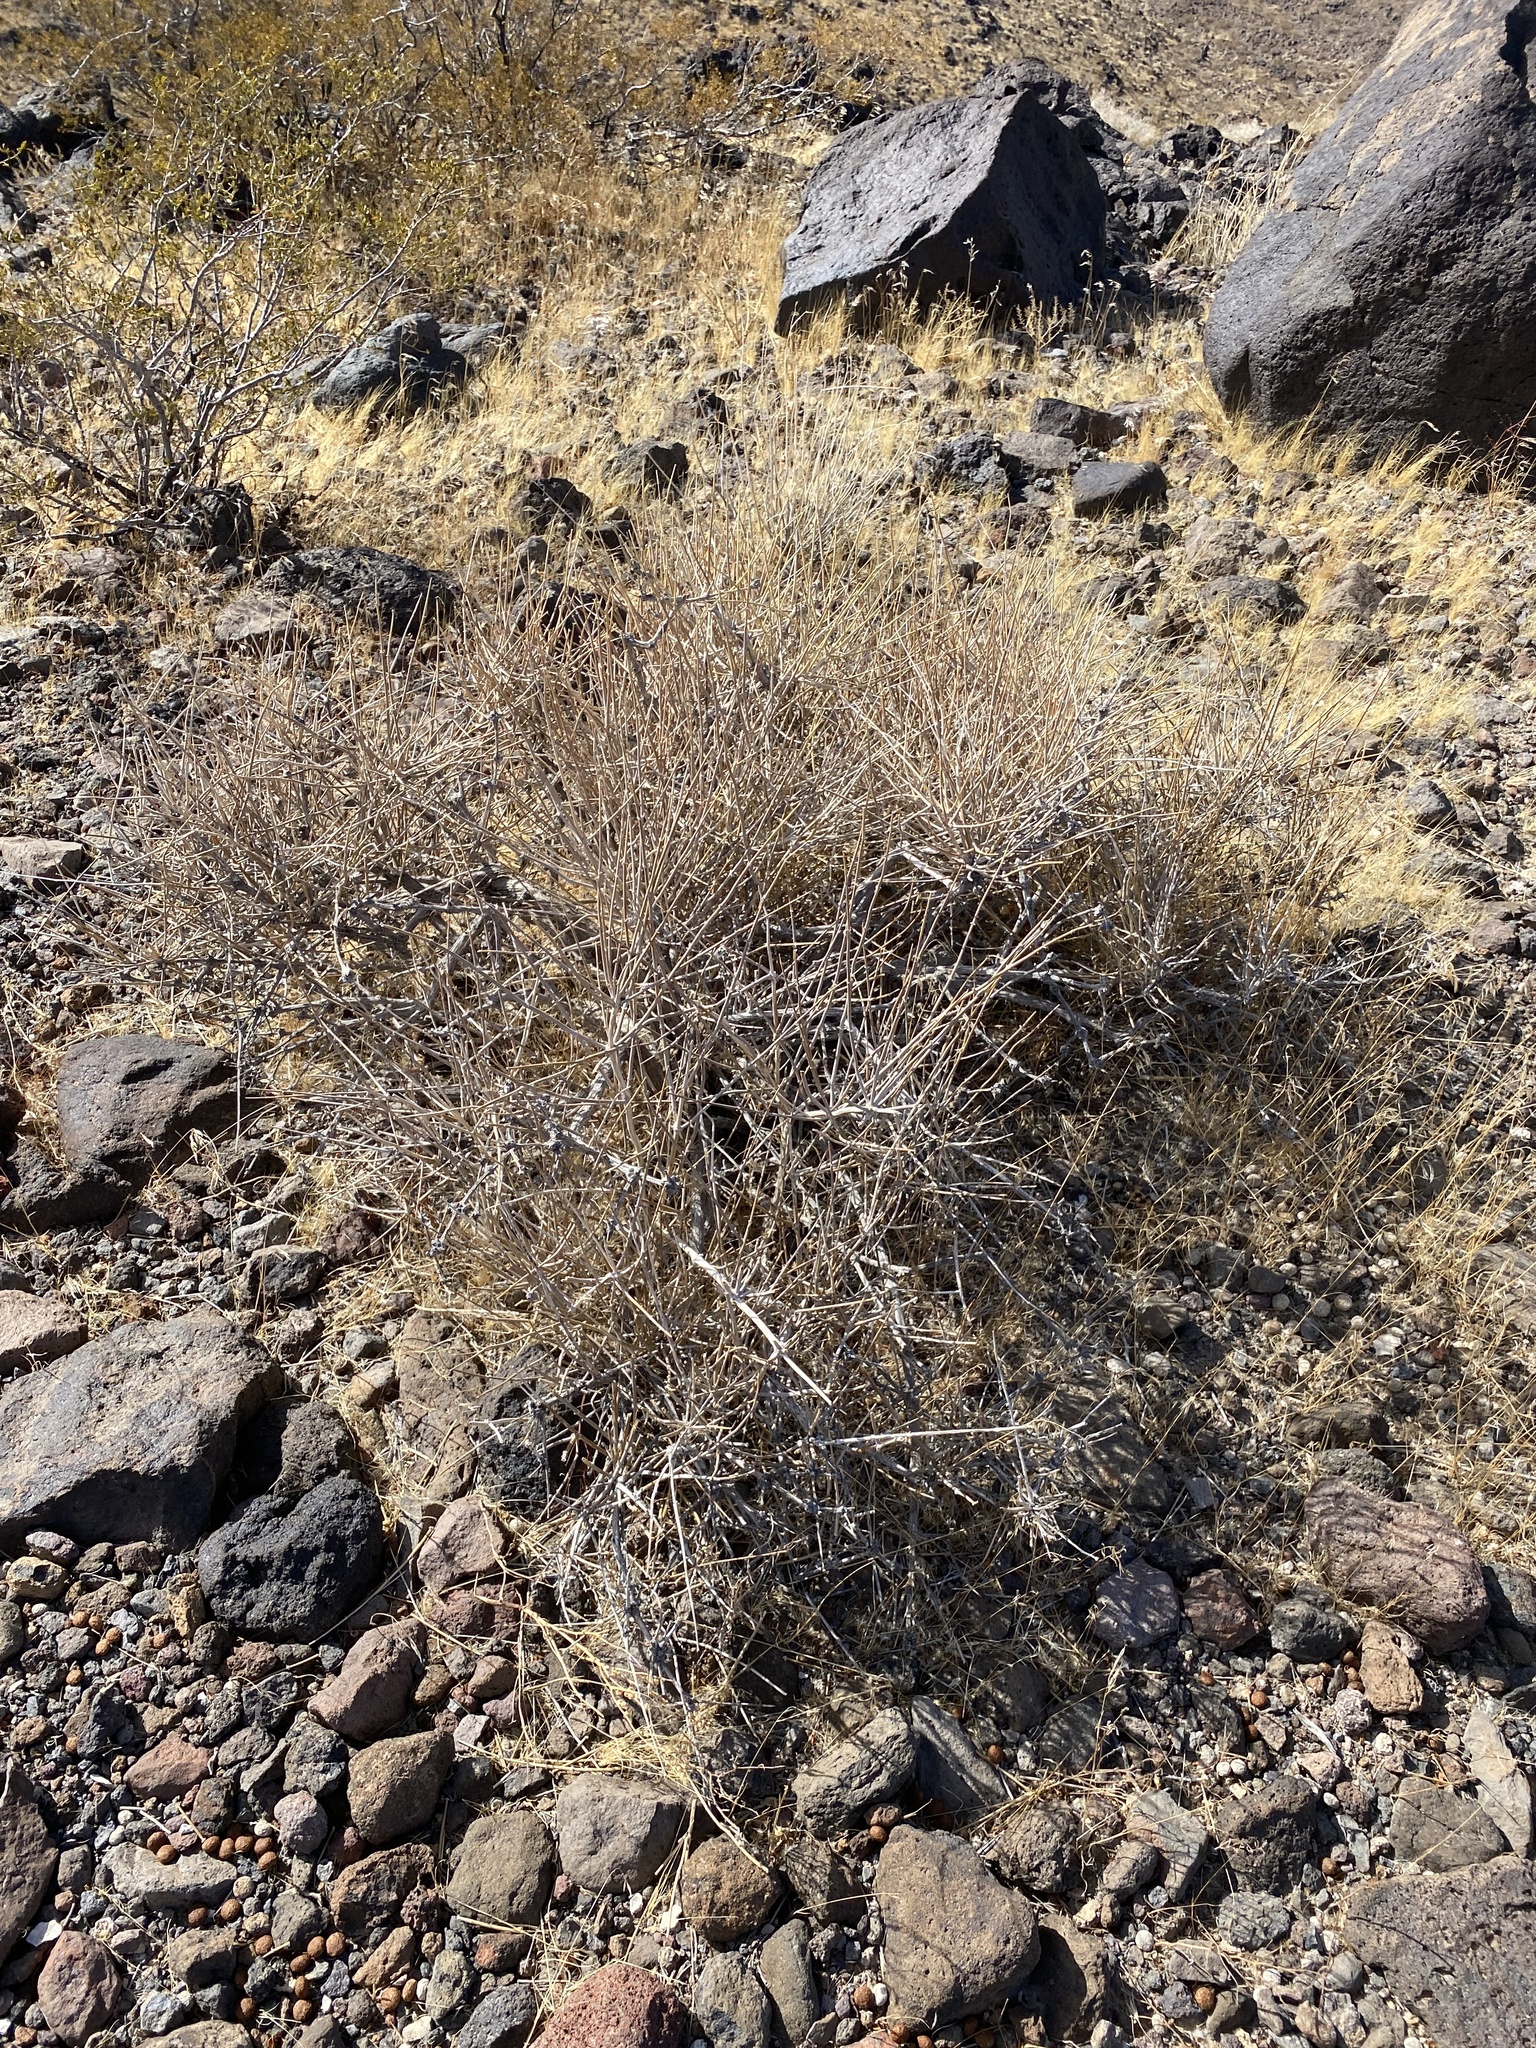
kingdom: Plantae
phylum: Tracheophyta
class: Gnetopsida
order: Ephedrales
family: Ephedraceae
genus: Ephedra
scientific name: Ephedra nevadensis
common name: Gray ephedra
